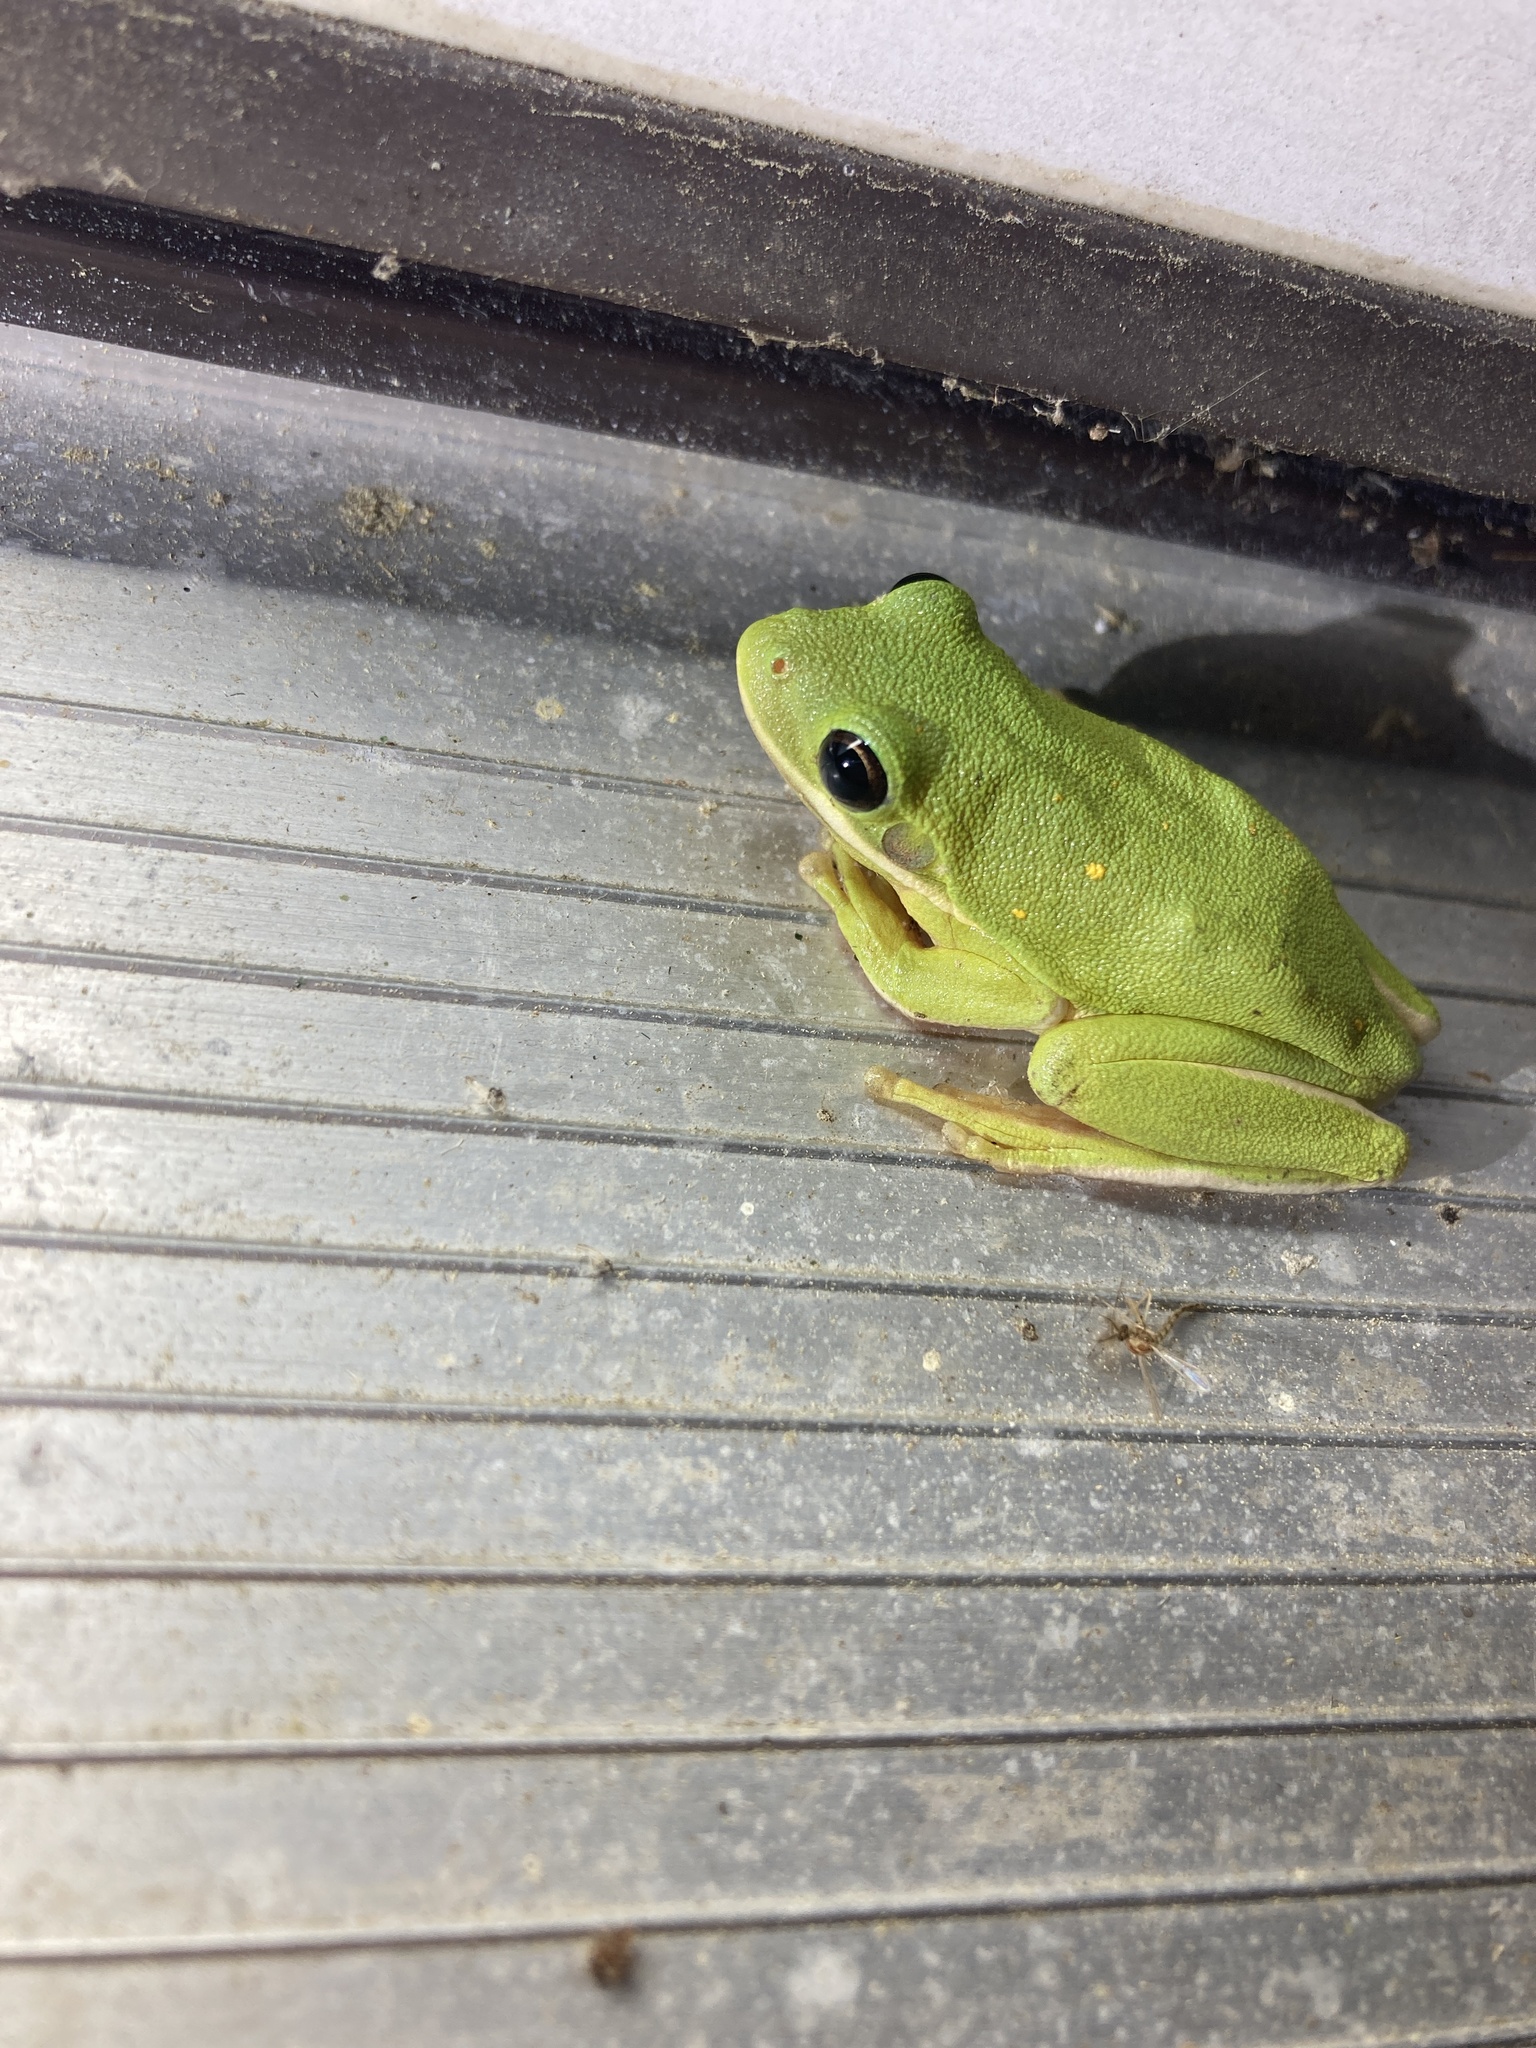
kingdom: Animalia
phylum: Chordata
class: Amphibia
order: Anura
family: Hylidae
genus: Dryophytes
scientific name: Dryophytes cinereus
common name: Green treefrog
